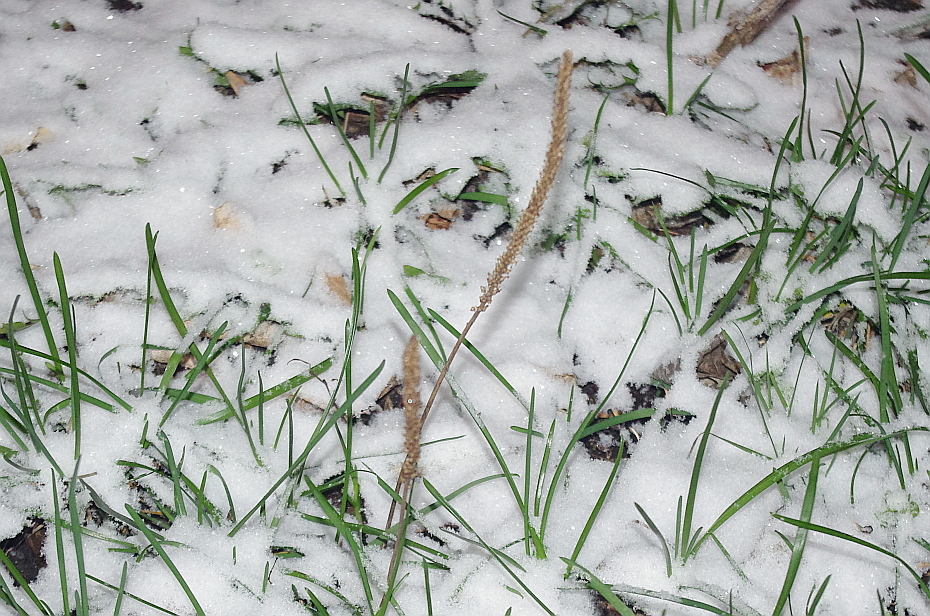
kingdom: Plantae
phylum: Tracheophyta
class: Magnoliopsida
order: Lamiales
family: Plantaginaceae
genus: Plantago
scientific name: Plantago major
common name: Common plantain
